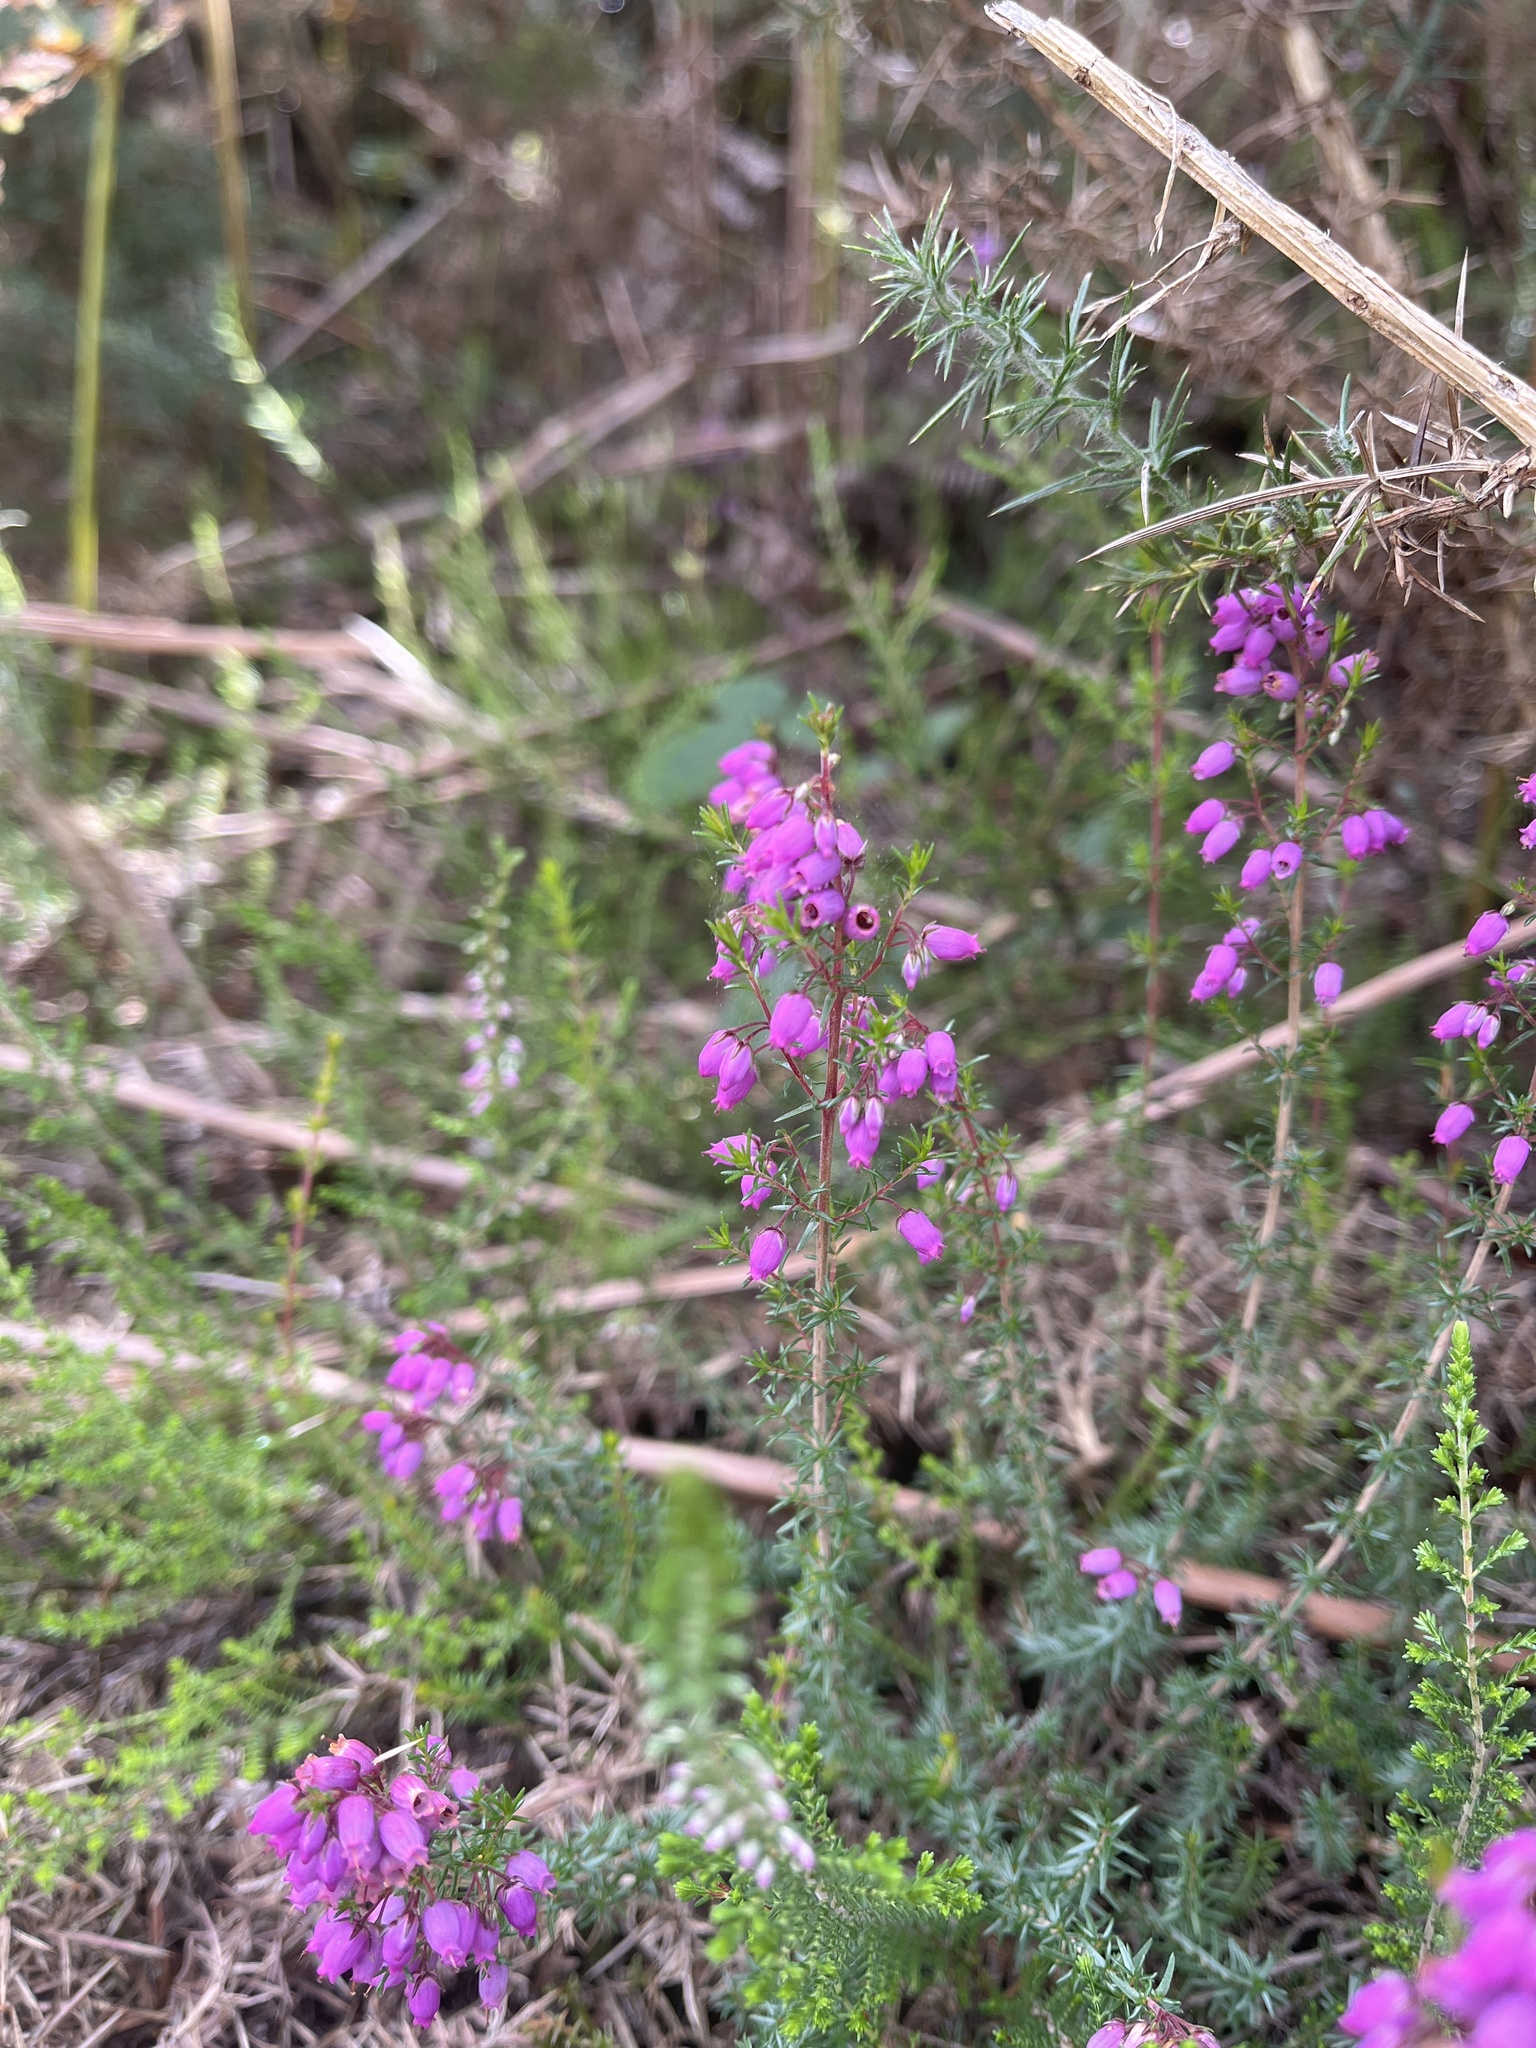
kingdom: Plantae
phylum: Tracheophyta
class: Magnoliopsida
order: Ericales
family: Ericaceae
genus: Erica
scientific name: Erica cinerea
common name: Bell heather
